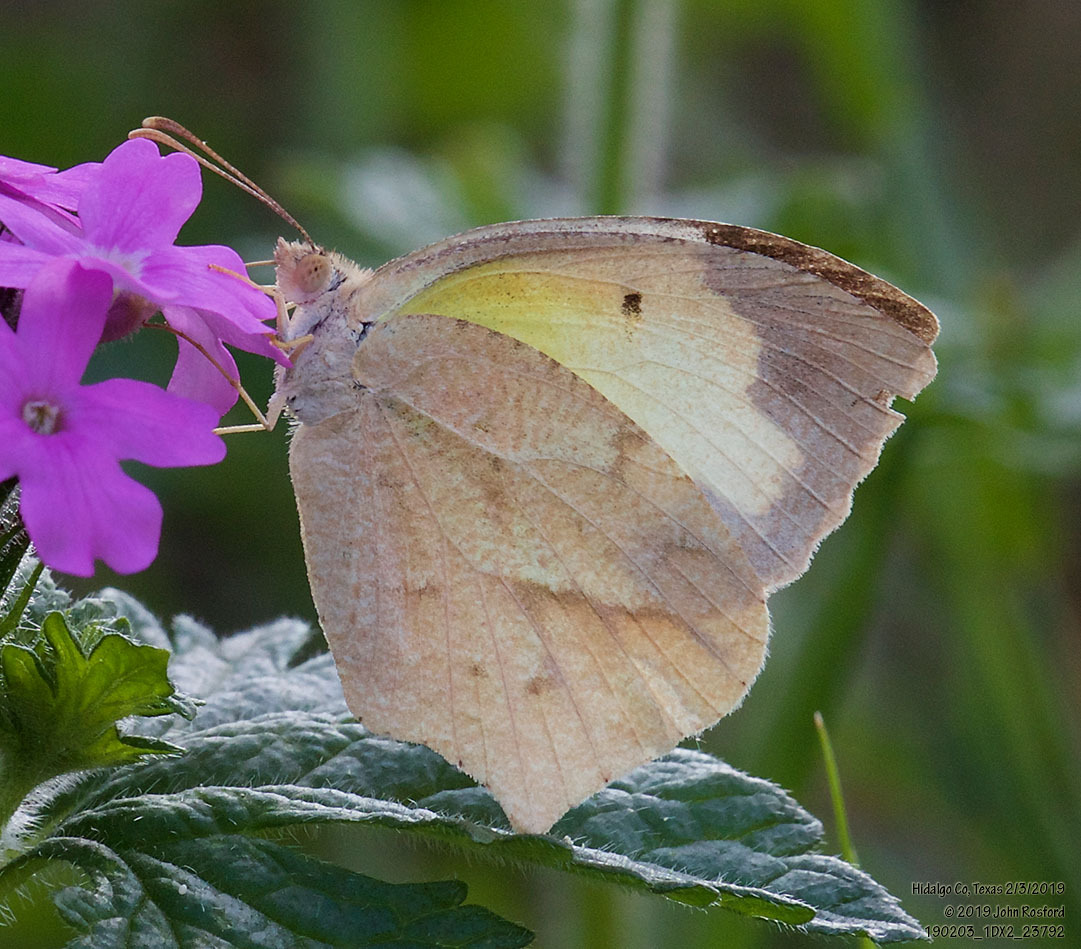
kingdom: Animalia
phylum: Arthropoda
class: Insecta
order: Lepidoptera
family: Pieridae
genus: Abaeis
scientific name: Abaeis mexicana
